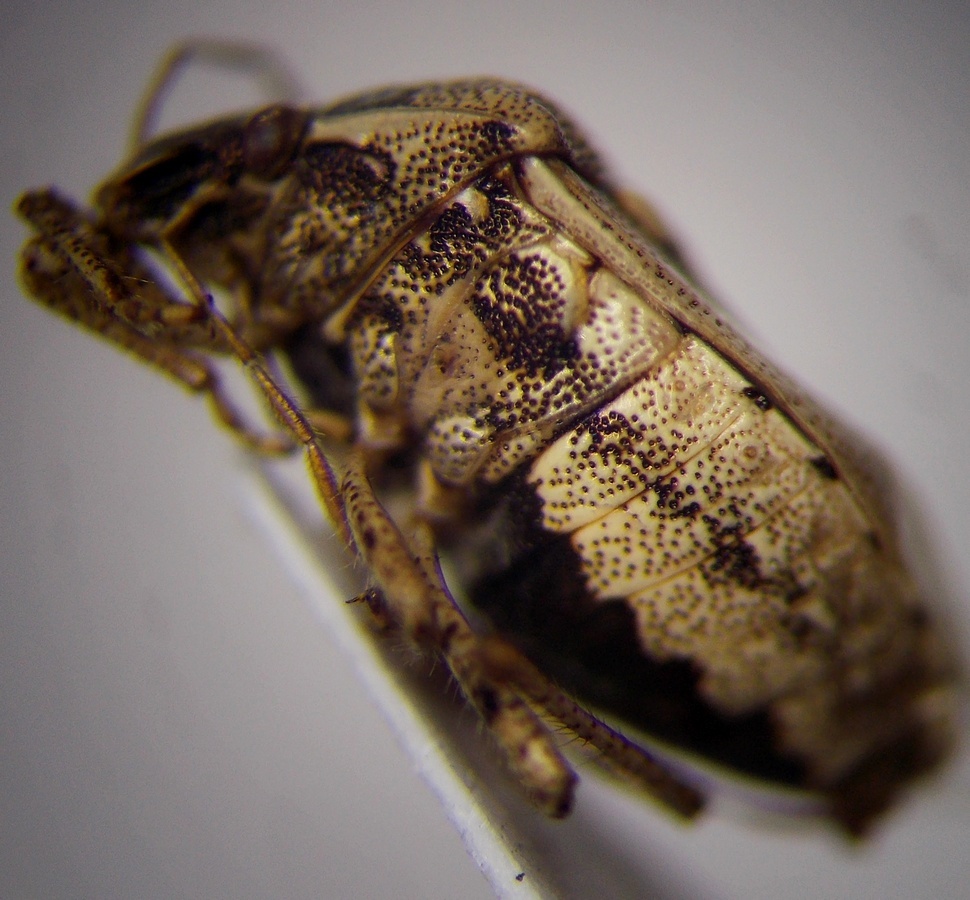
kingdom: Animalia
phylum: Arthropoda
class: Insecta
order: Hemiptera
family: Pentatomidae
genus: Eysarcoris
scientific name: Eysarcoris ventralis
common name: White-spotted stink bug
